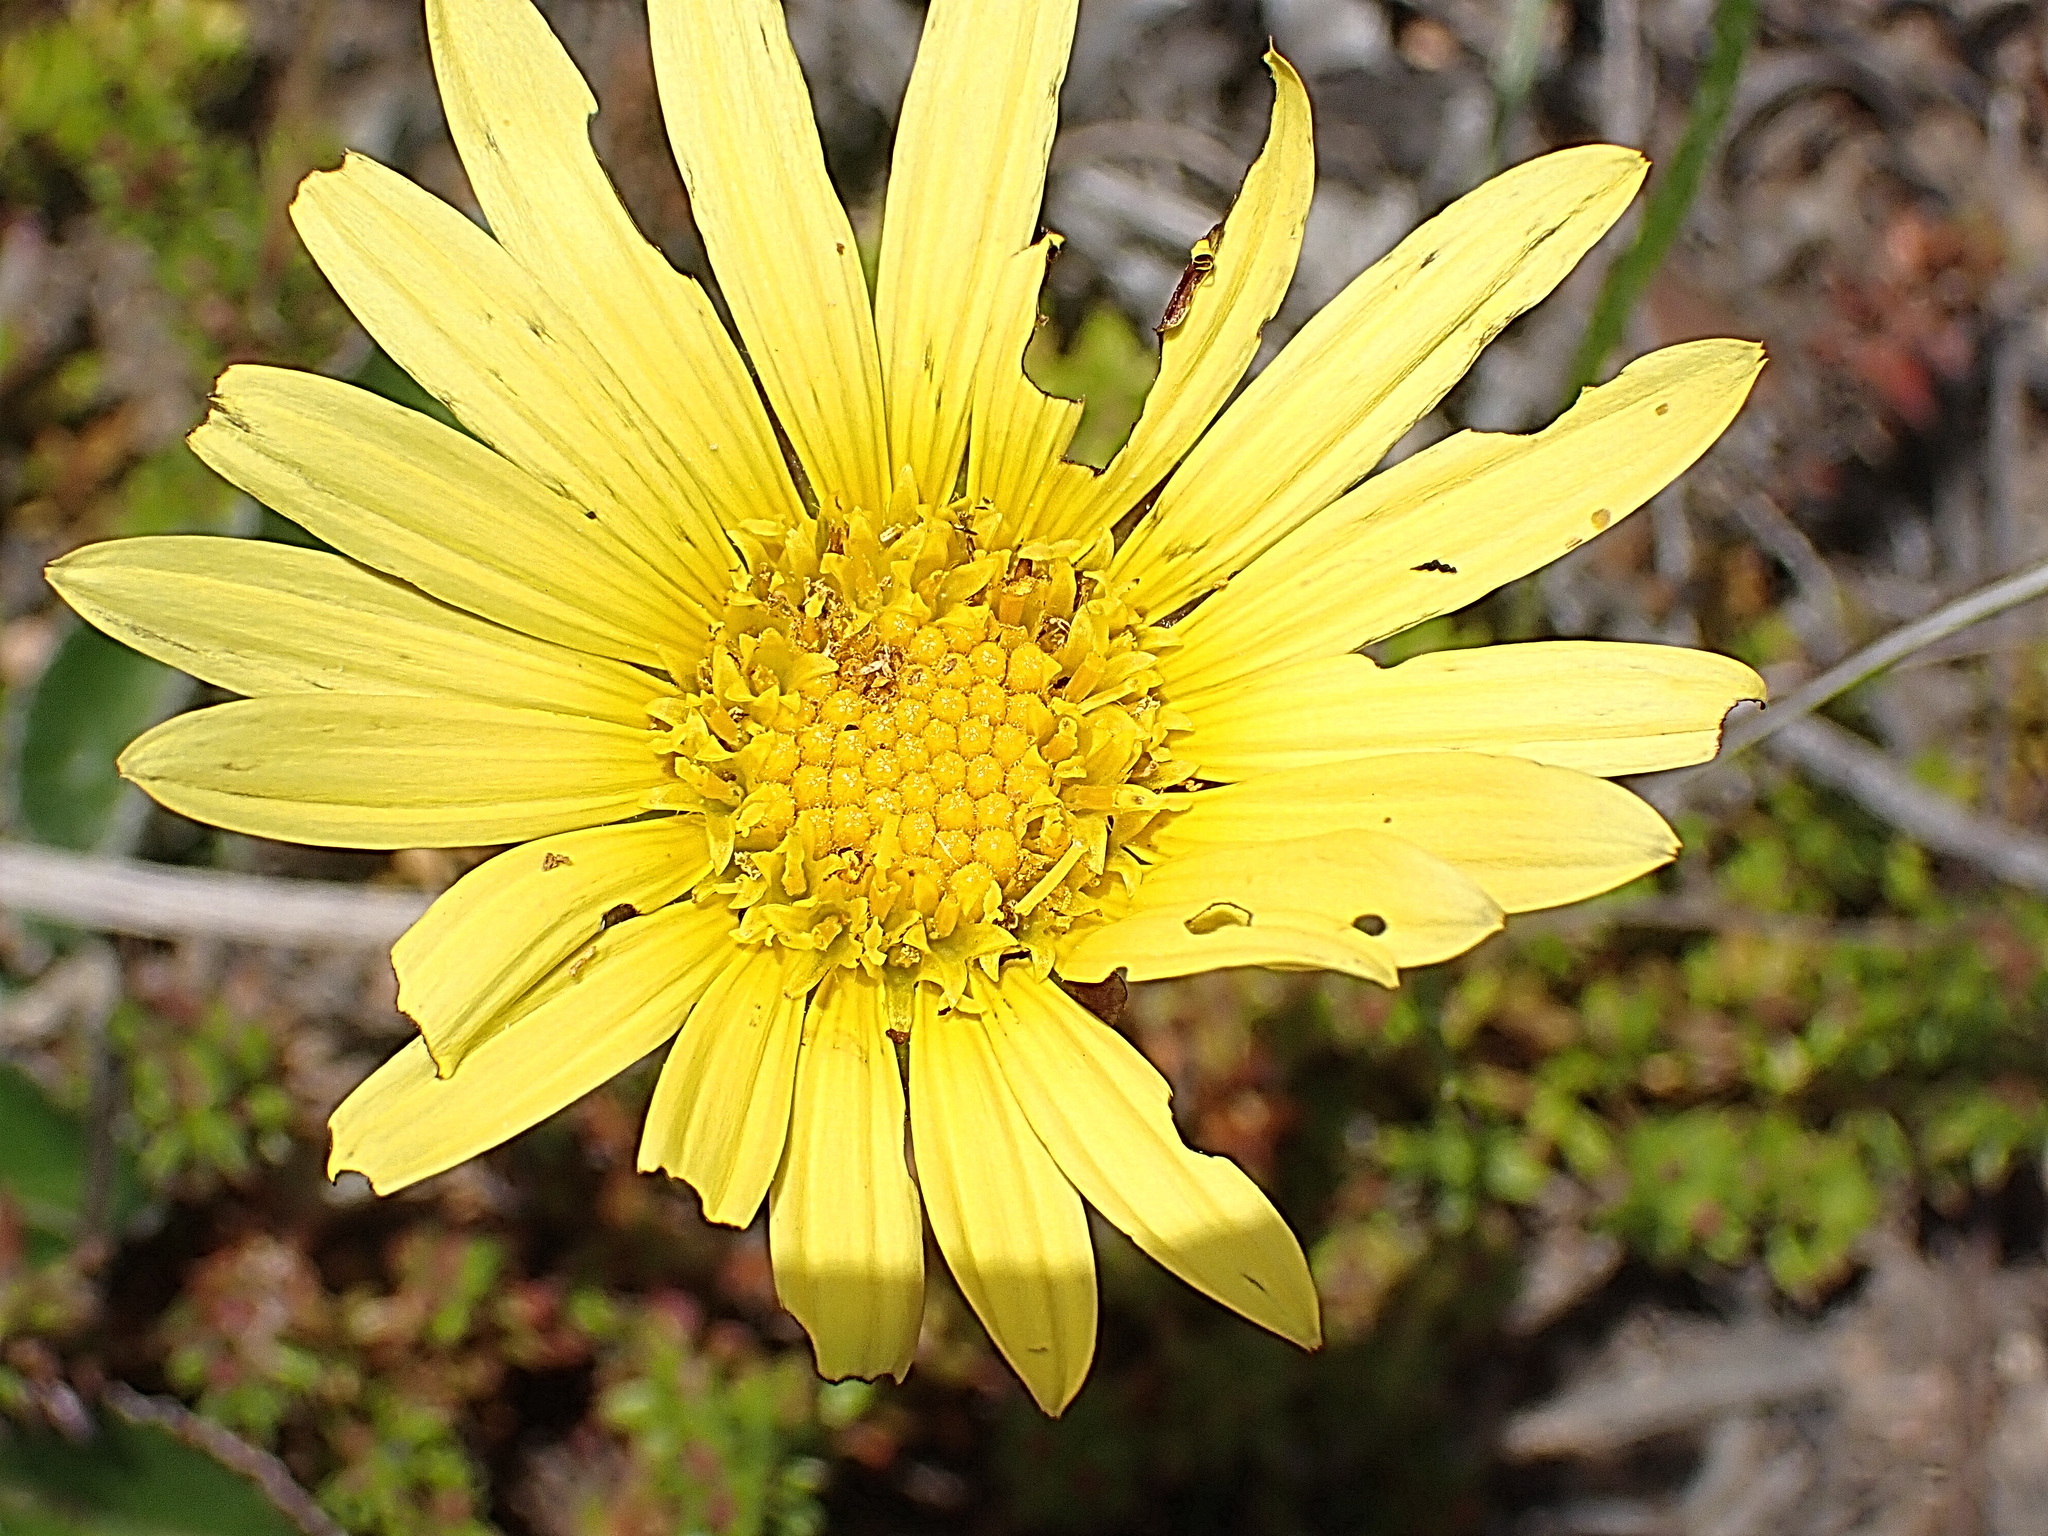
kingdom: Plantae
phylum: Tracheophyta
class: Magnoliopsida
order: Asterales
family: Asteraceae
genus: Arctotheca
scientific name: Arctotheca prostrata
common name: Capeweed
